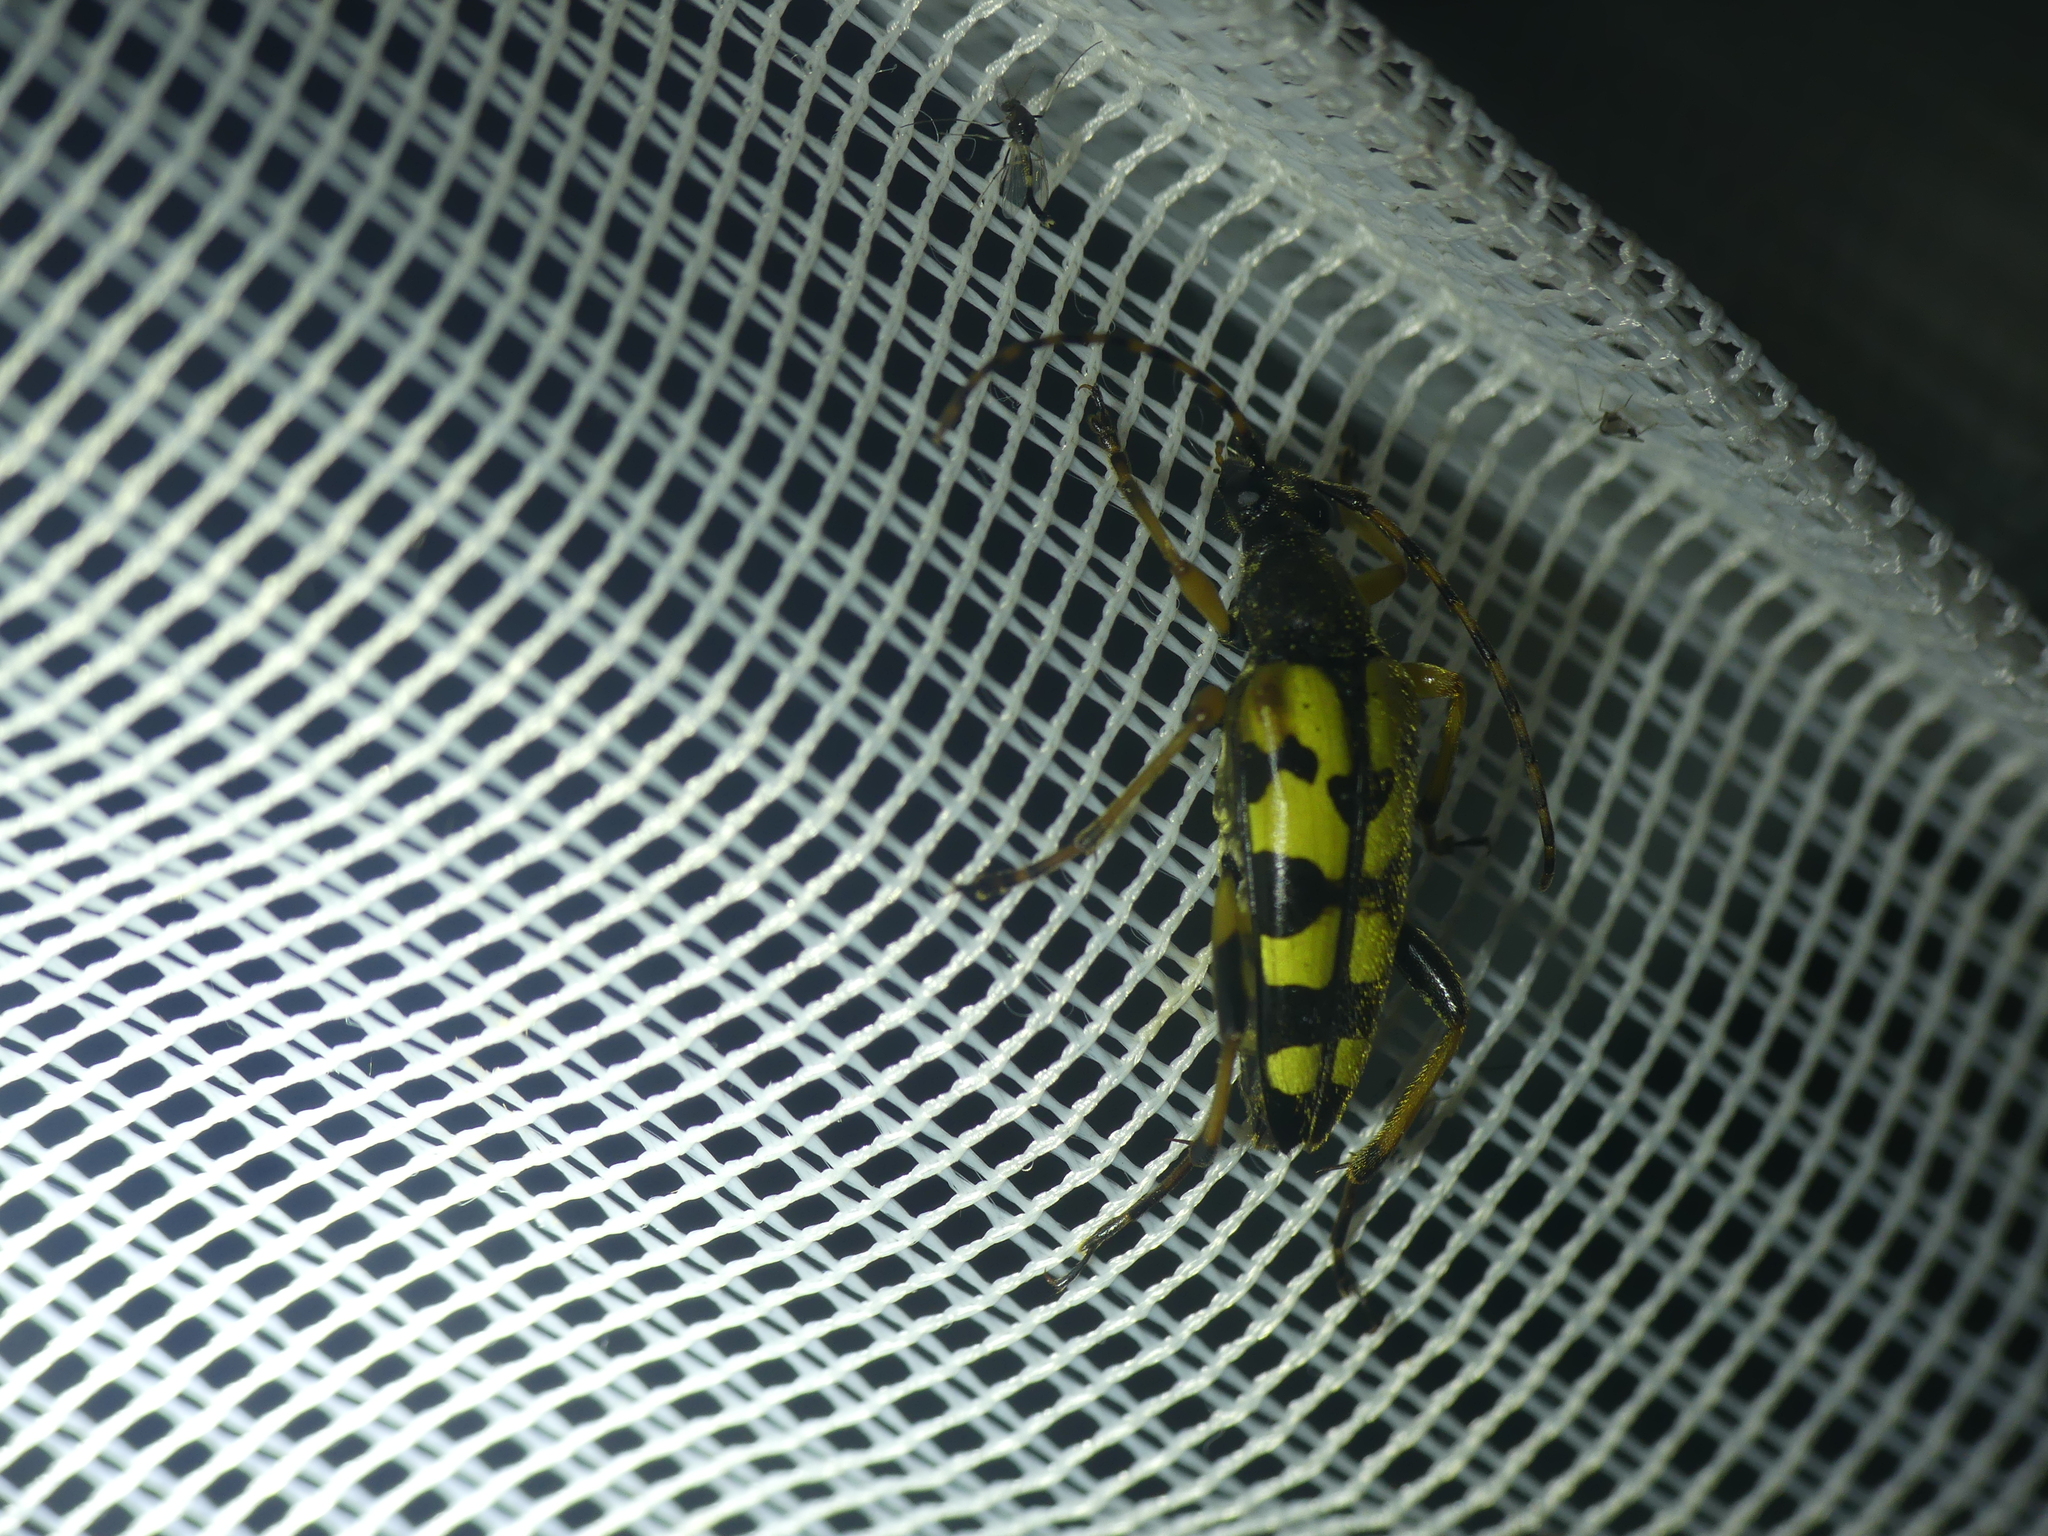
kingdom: Animalia
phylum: Arthropoda
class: Insecta
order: Coleoptera
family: Cerambycidae
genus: Rutpela
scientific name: Rutpela maculata
